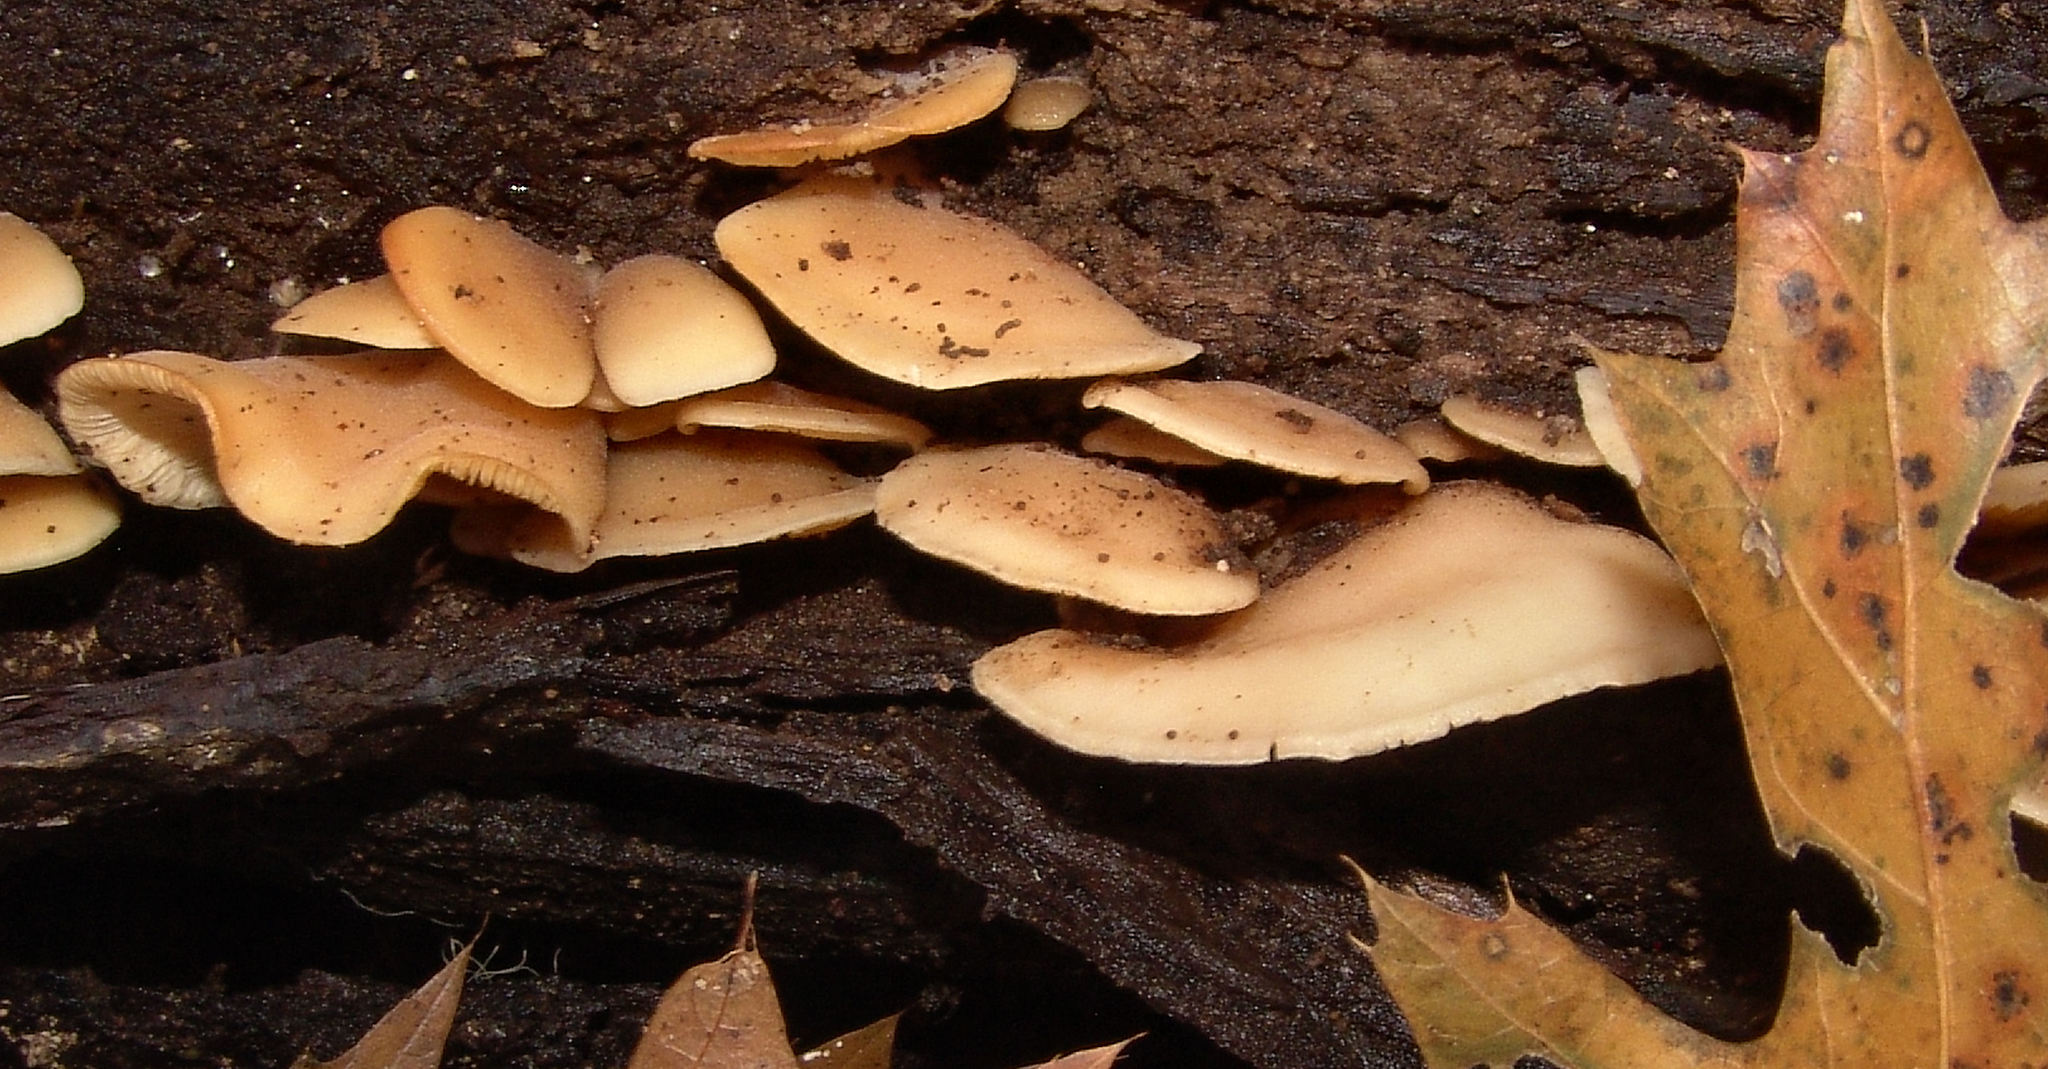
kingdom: Fungi
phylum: Basidiomycota
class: Agaricomycetes
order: Agaricales
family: Sarcomyxaceae
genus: Sarcomyxa
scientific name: Sarcomyxa serotina
